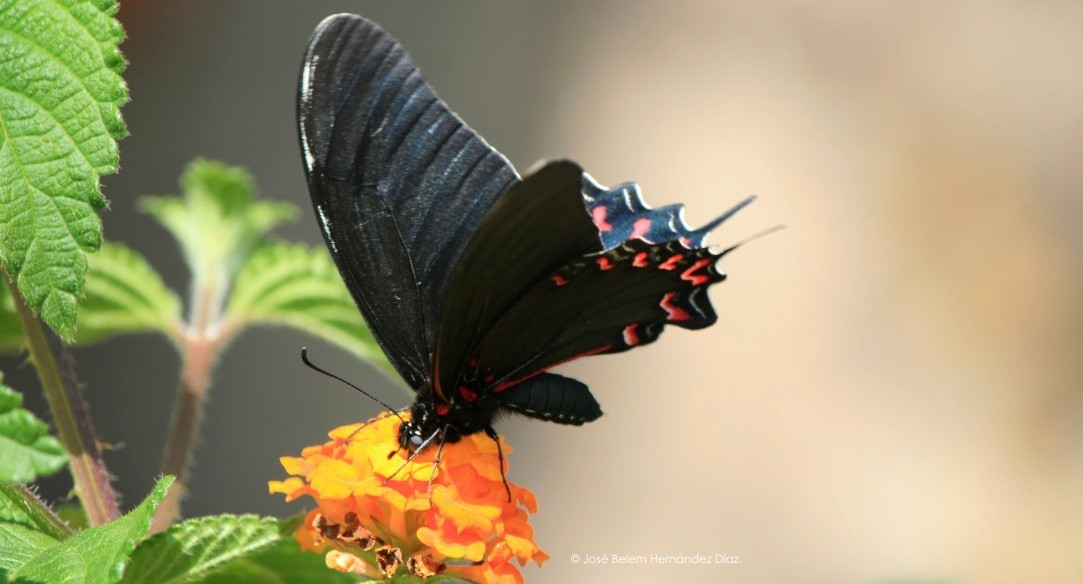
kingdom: Animalia
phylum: Arthropoda
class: Insecta
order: Lepidoptera
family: Papilionidae
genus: Mimoides
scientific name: Mimoides thymbraeus
